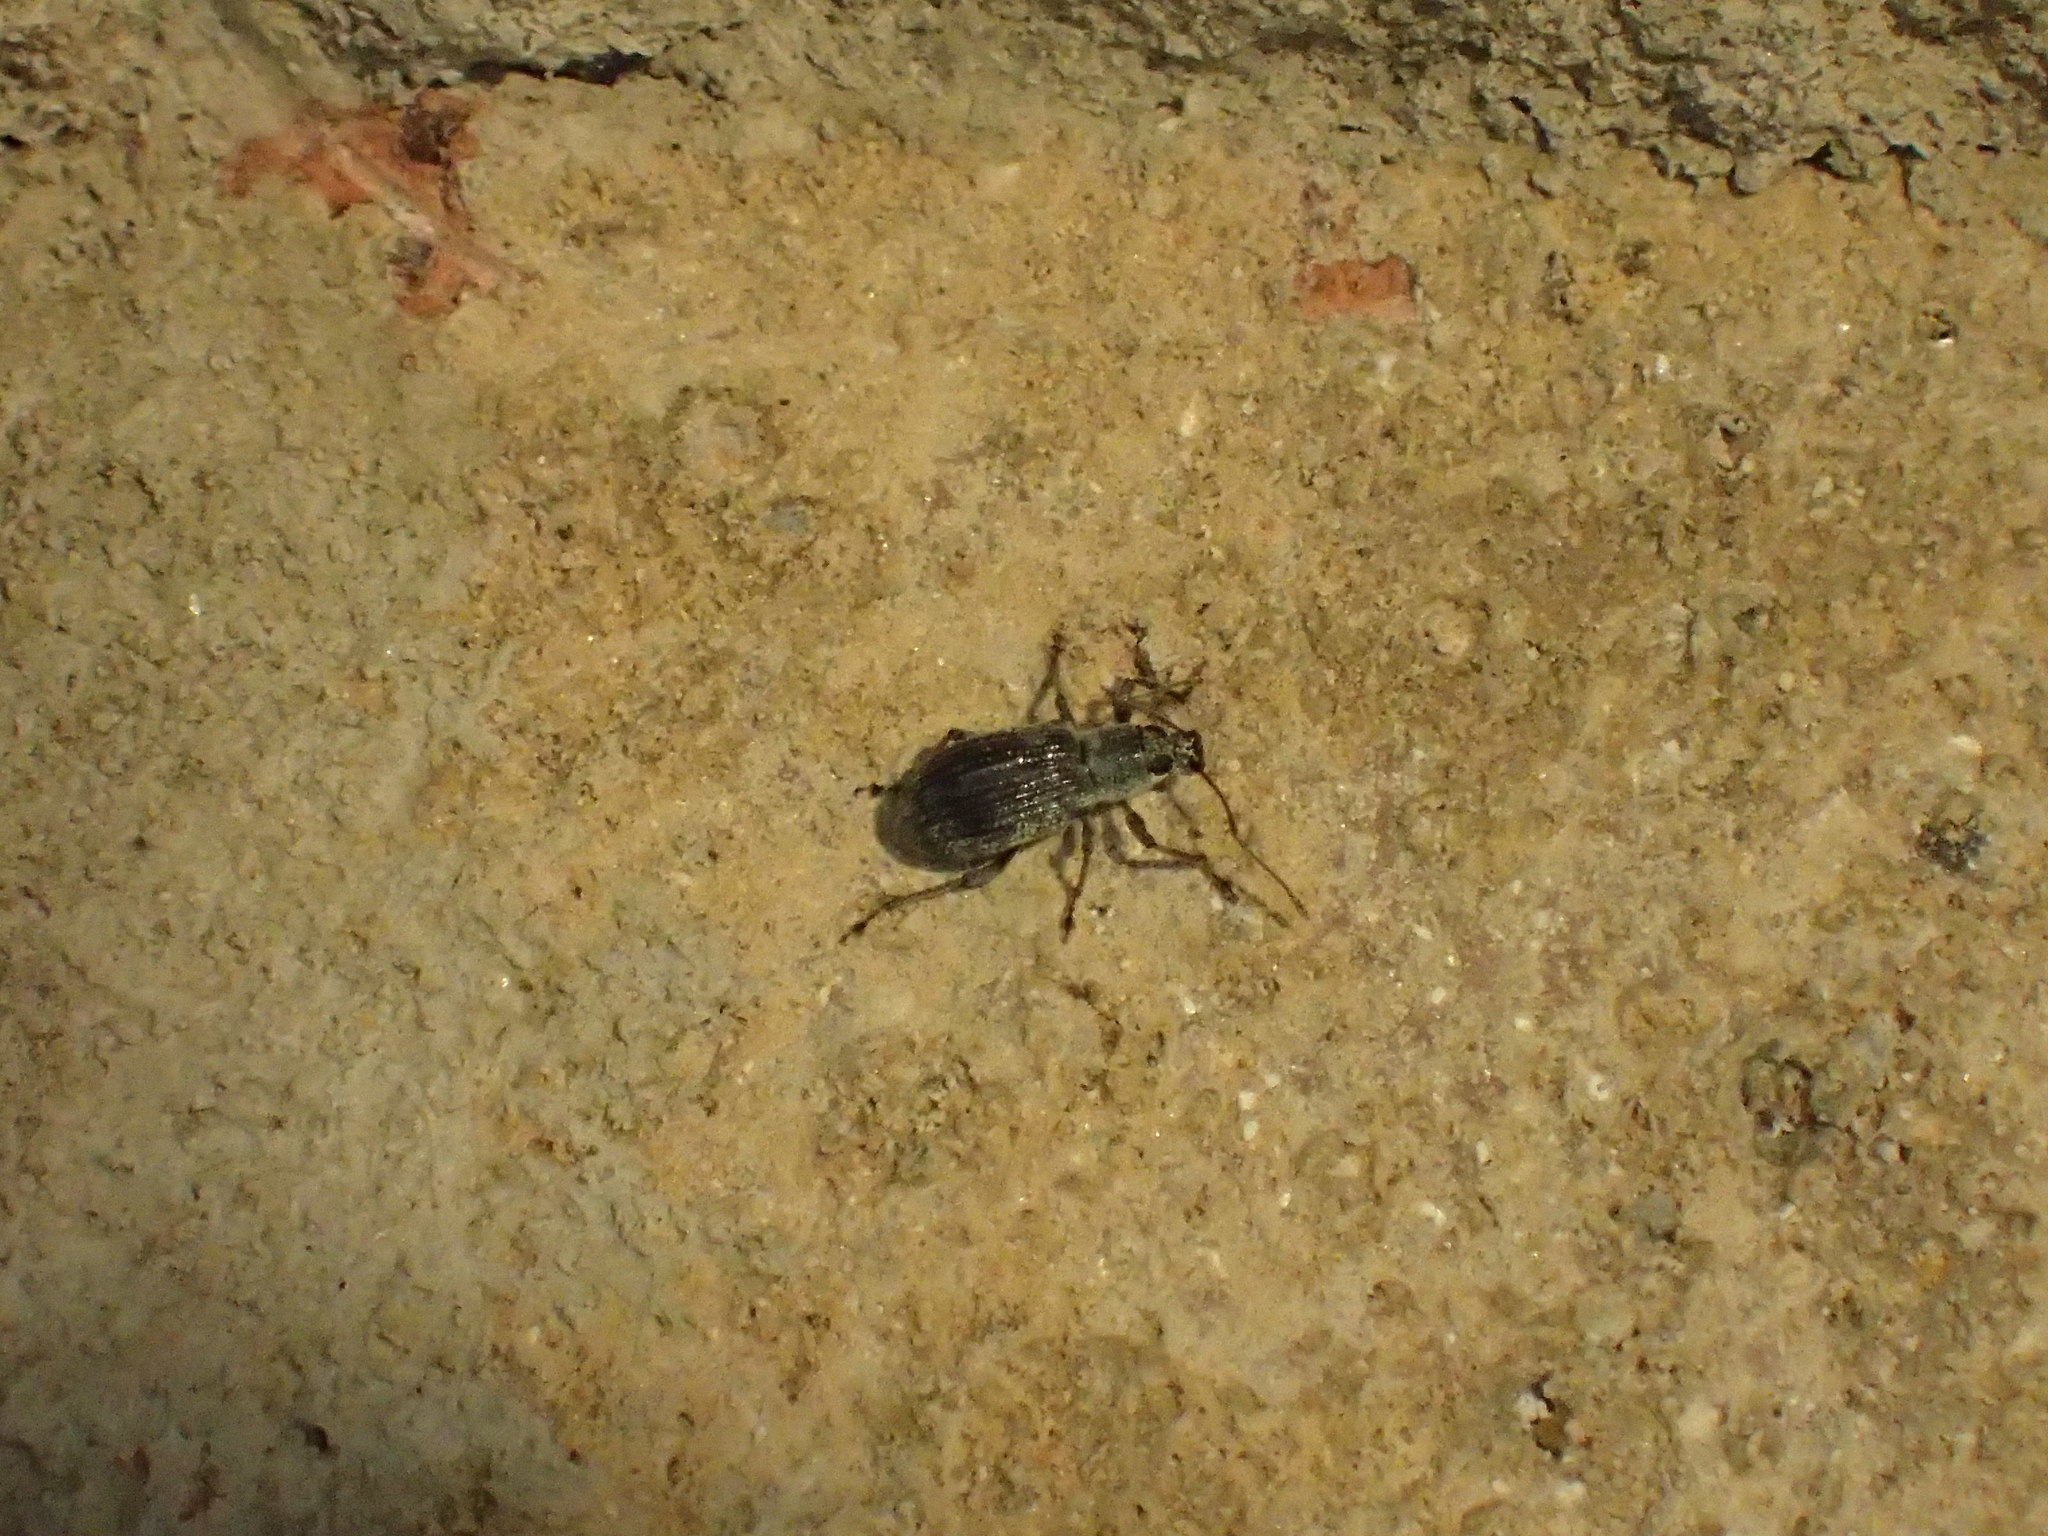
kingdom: Animalia
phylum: Arthropoda
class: Insecta
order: Coleoptera
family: Curculionidae
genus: Cyrtepistomus
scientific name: Cyrtepistomus castaneus
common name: Weevil
